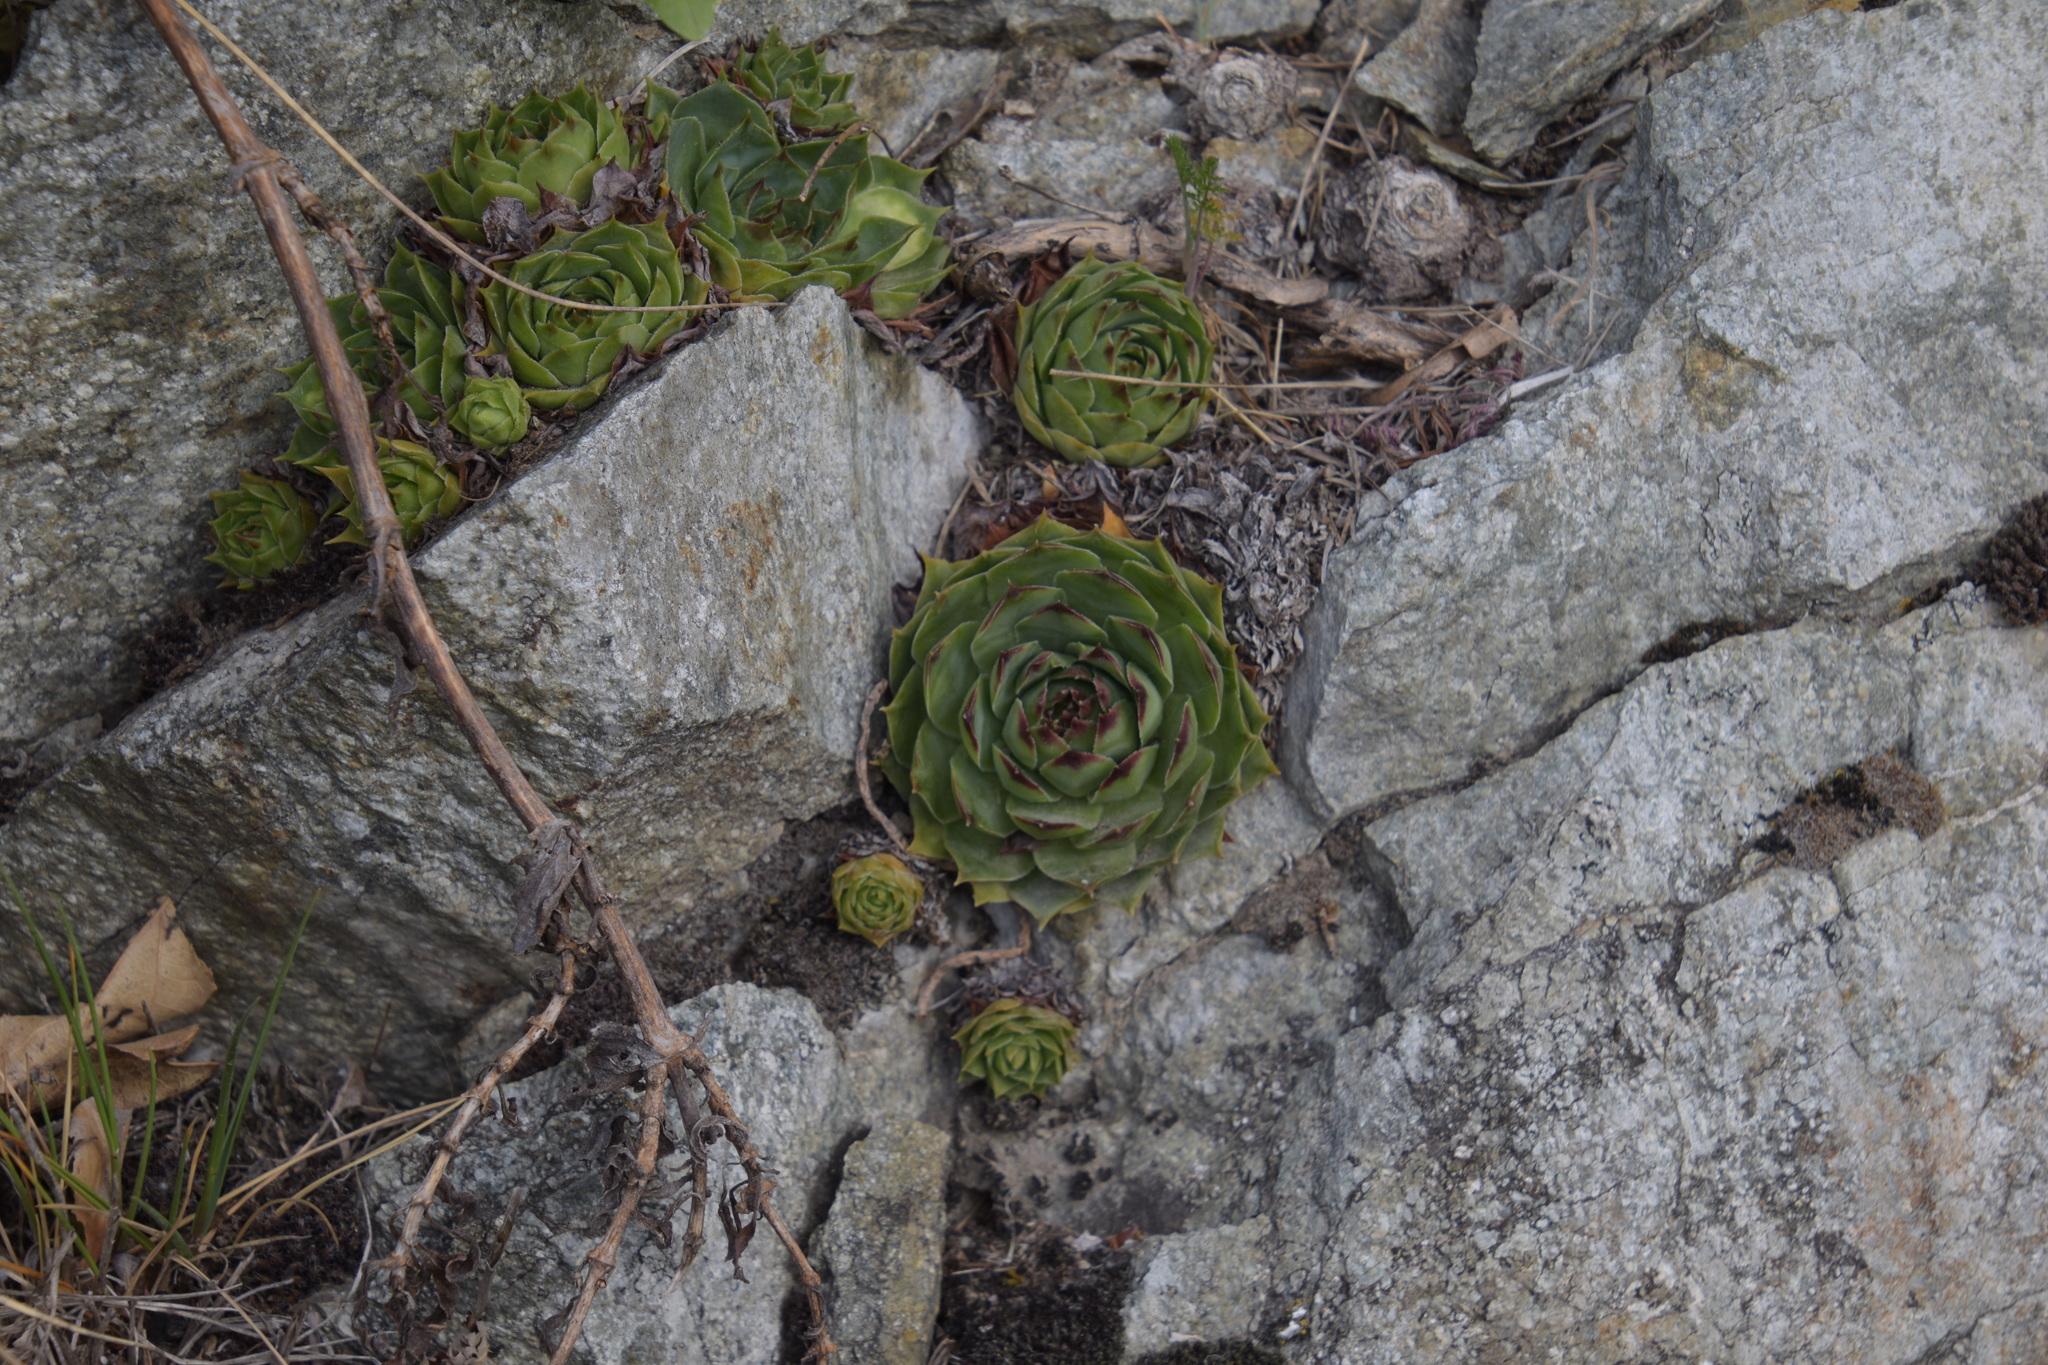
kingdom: Plantae
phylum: Tracheophyta
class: Magnoliopsida
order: Saxifragales
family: Crassulaceae
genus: Sempervivum
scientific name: Sempervivum tectorum
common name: House-leek
